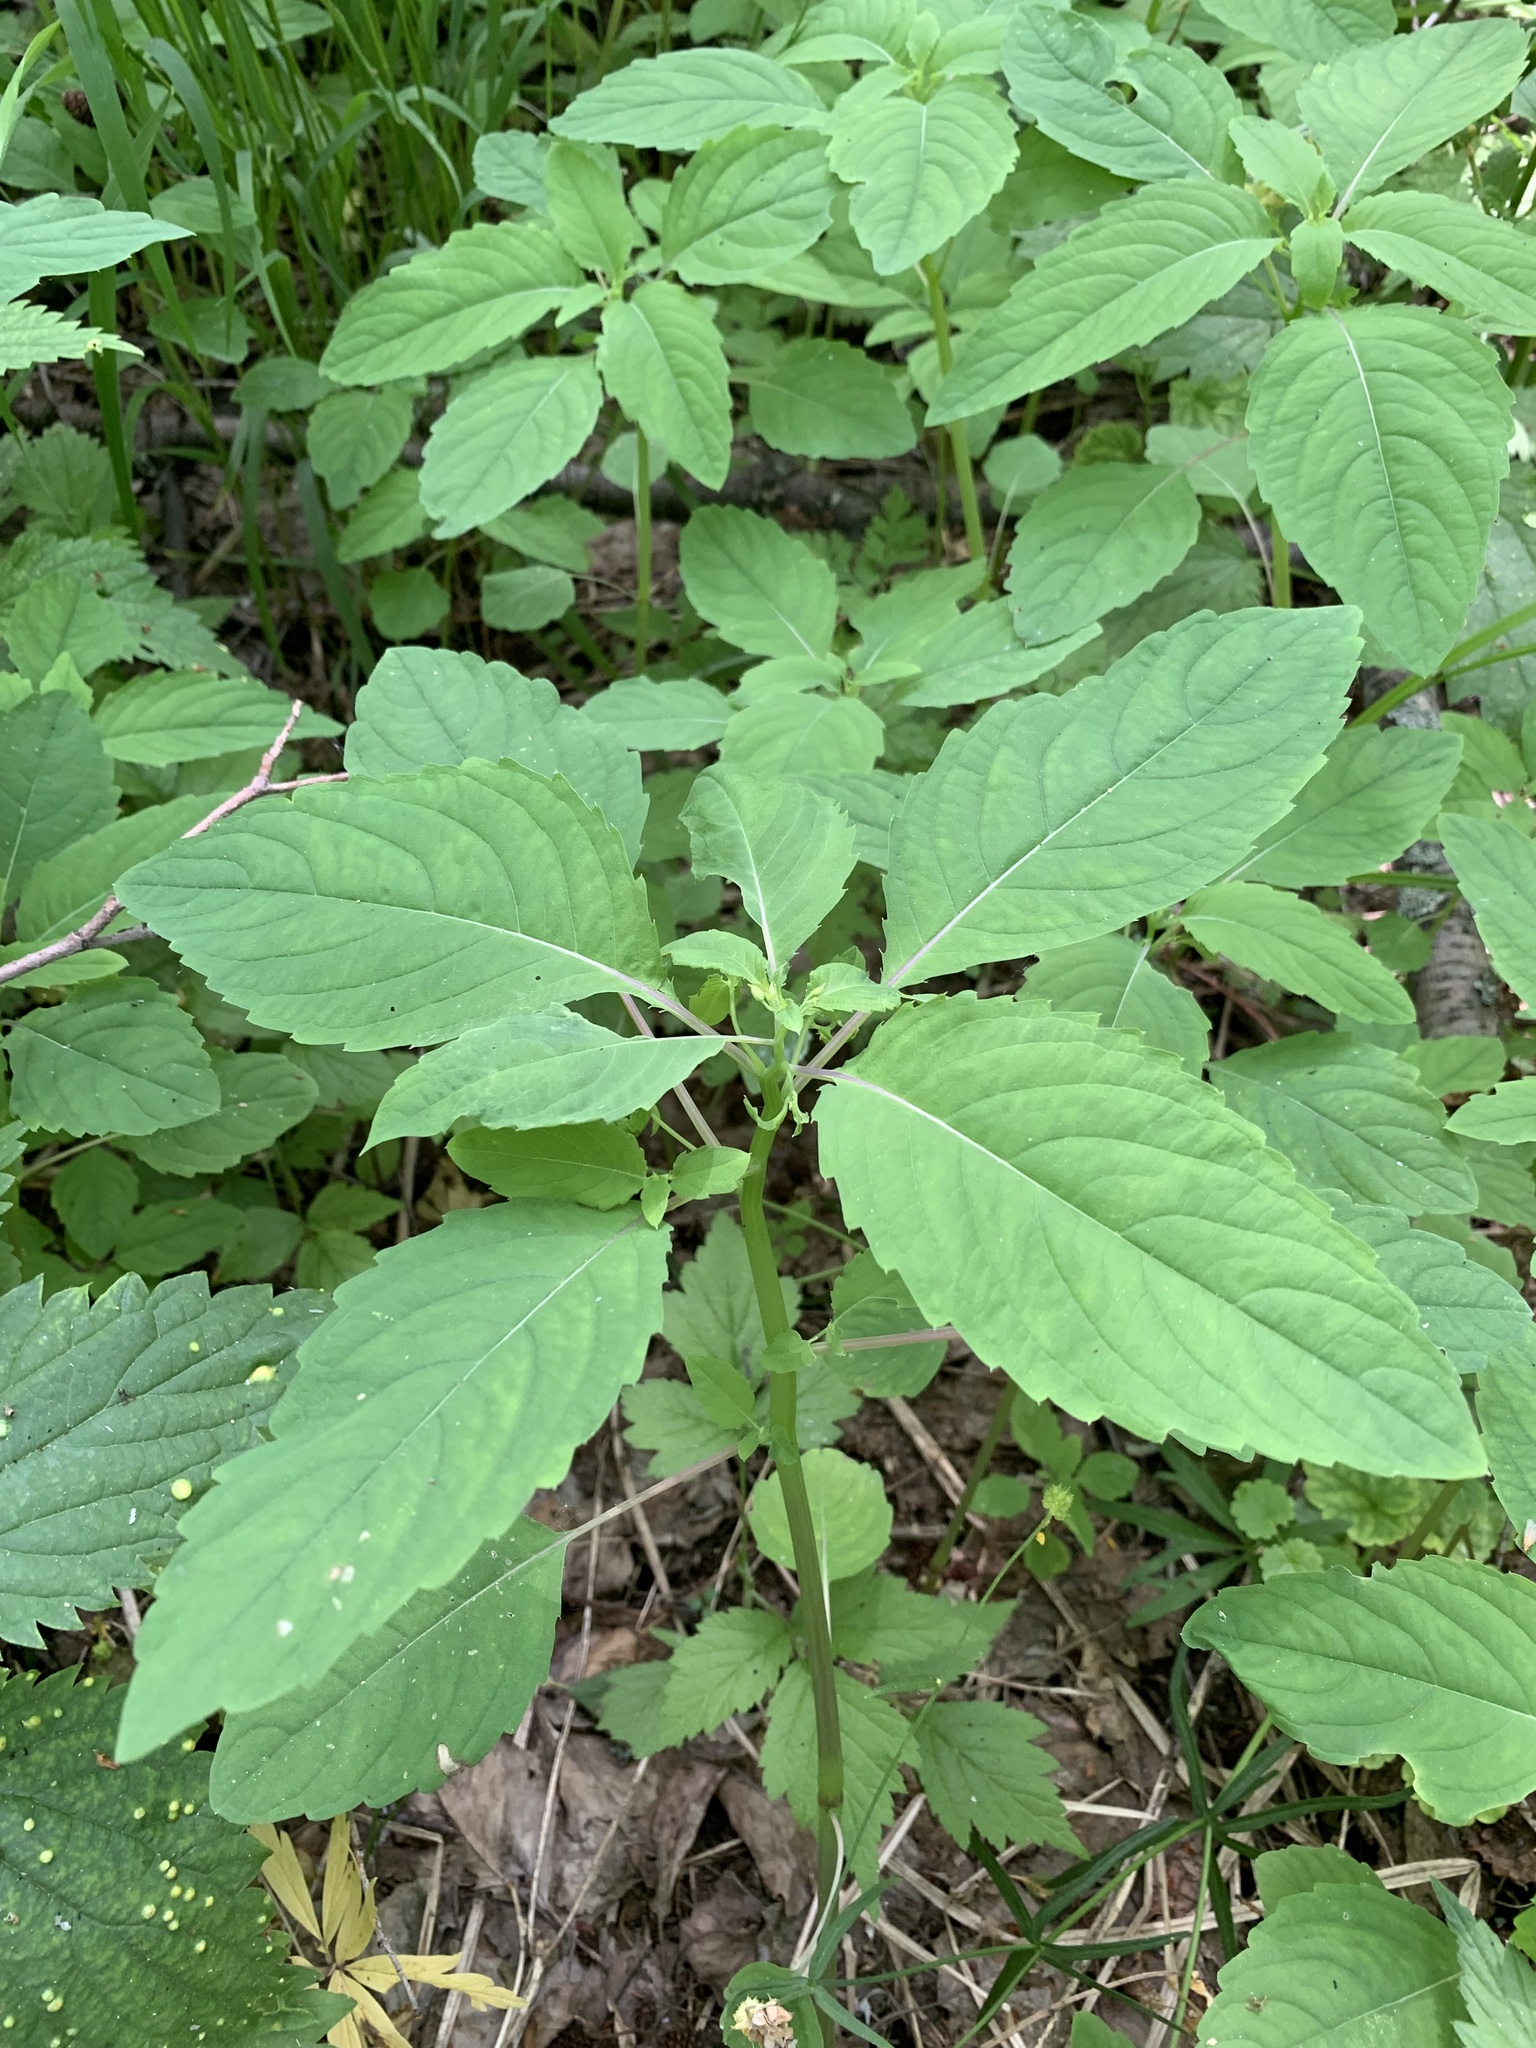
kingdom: Plantae
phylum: Tracheophyta
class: Magnoliopsida
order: Ericales
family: Balsaminaceae
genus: Impatiens
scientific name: Impatiens noli-tangere
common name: Touch-me-not balsam
